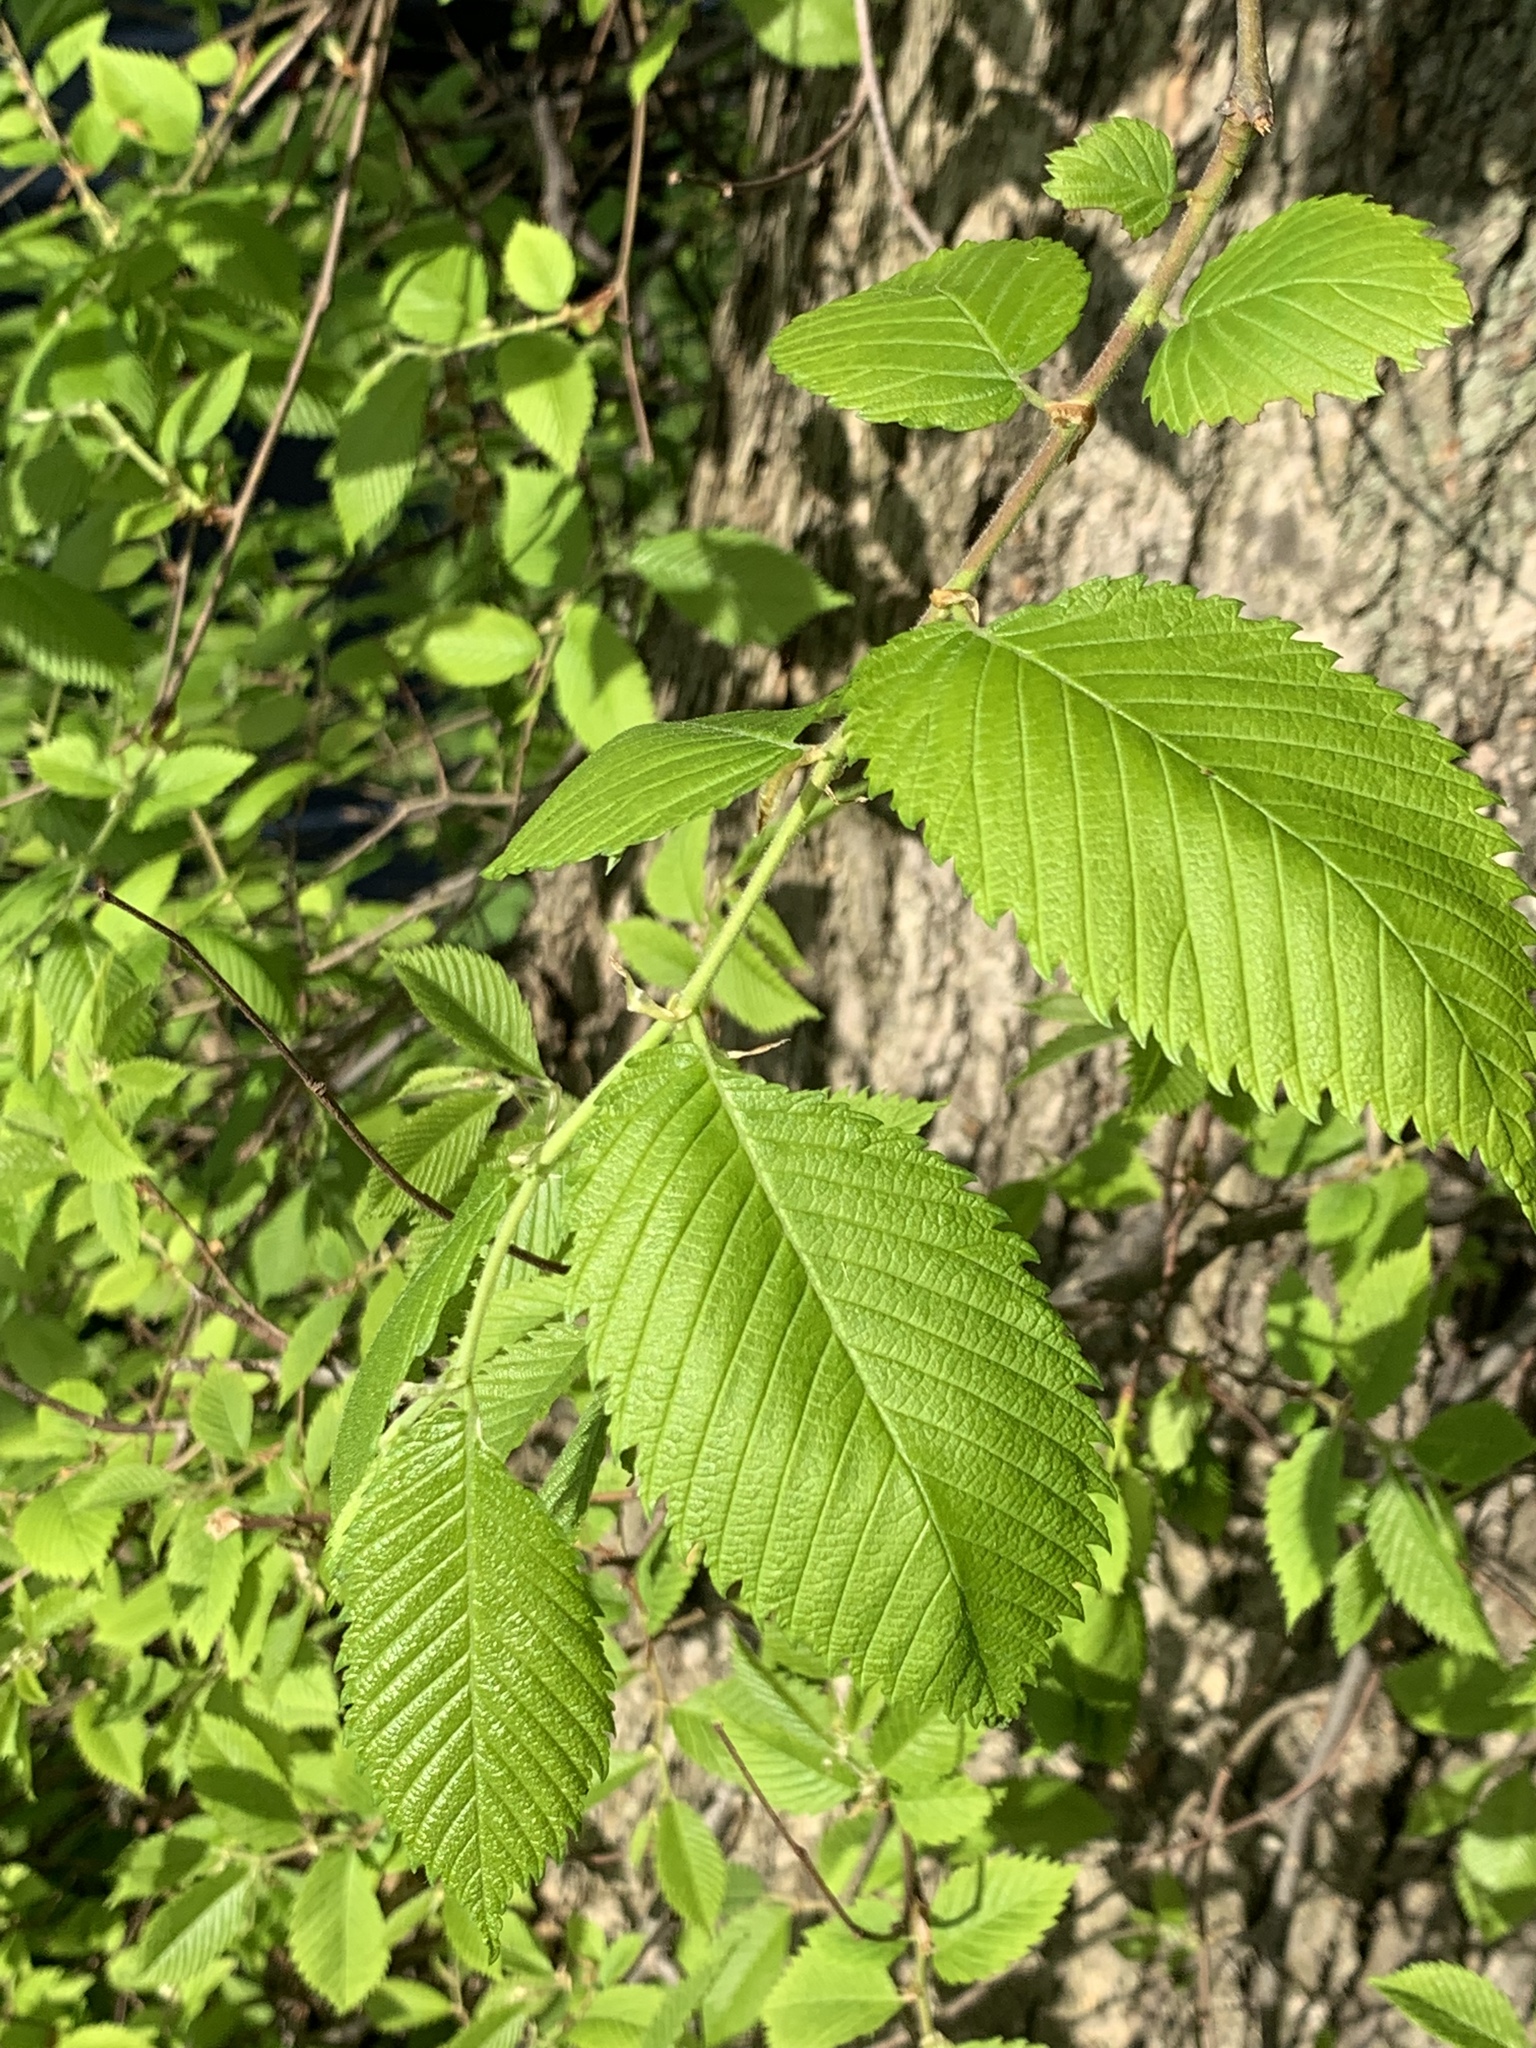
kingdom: Plantae
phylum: Tracheophyta
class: Magnoliopsida
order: Rosales
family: Ulmaceae
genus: Ulmus
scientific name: Ulmus americana
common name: American elm
